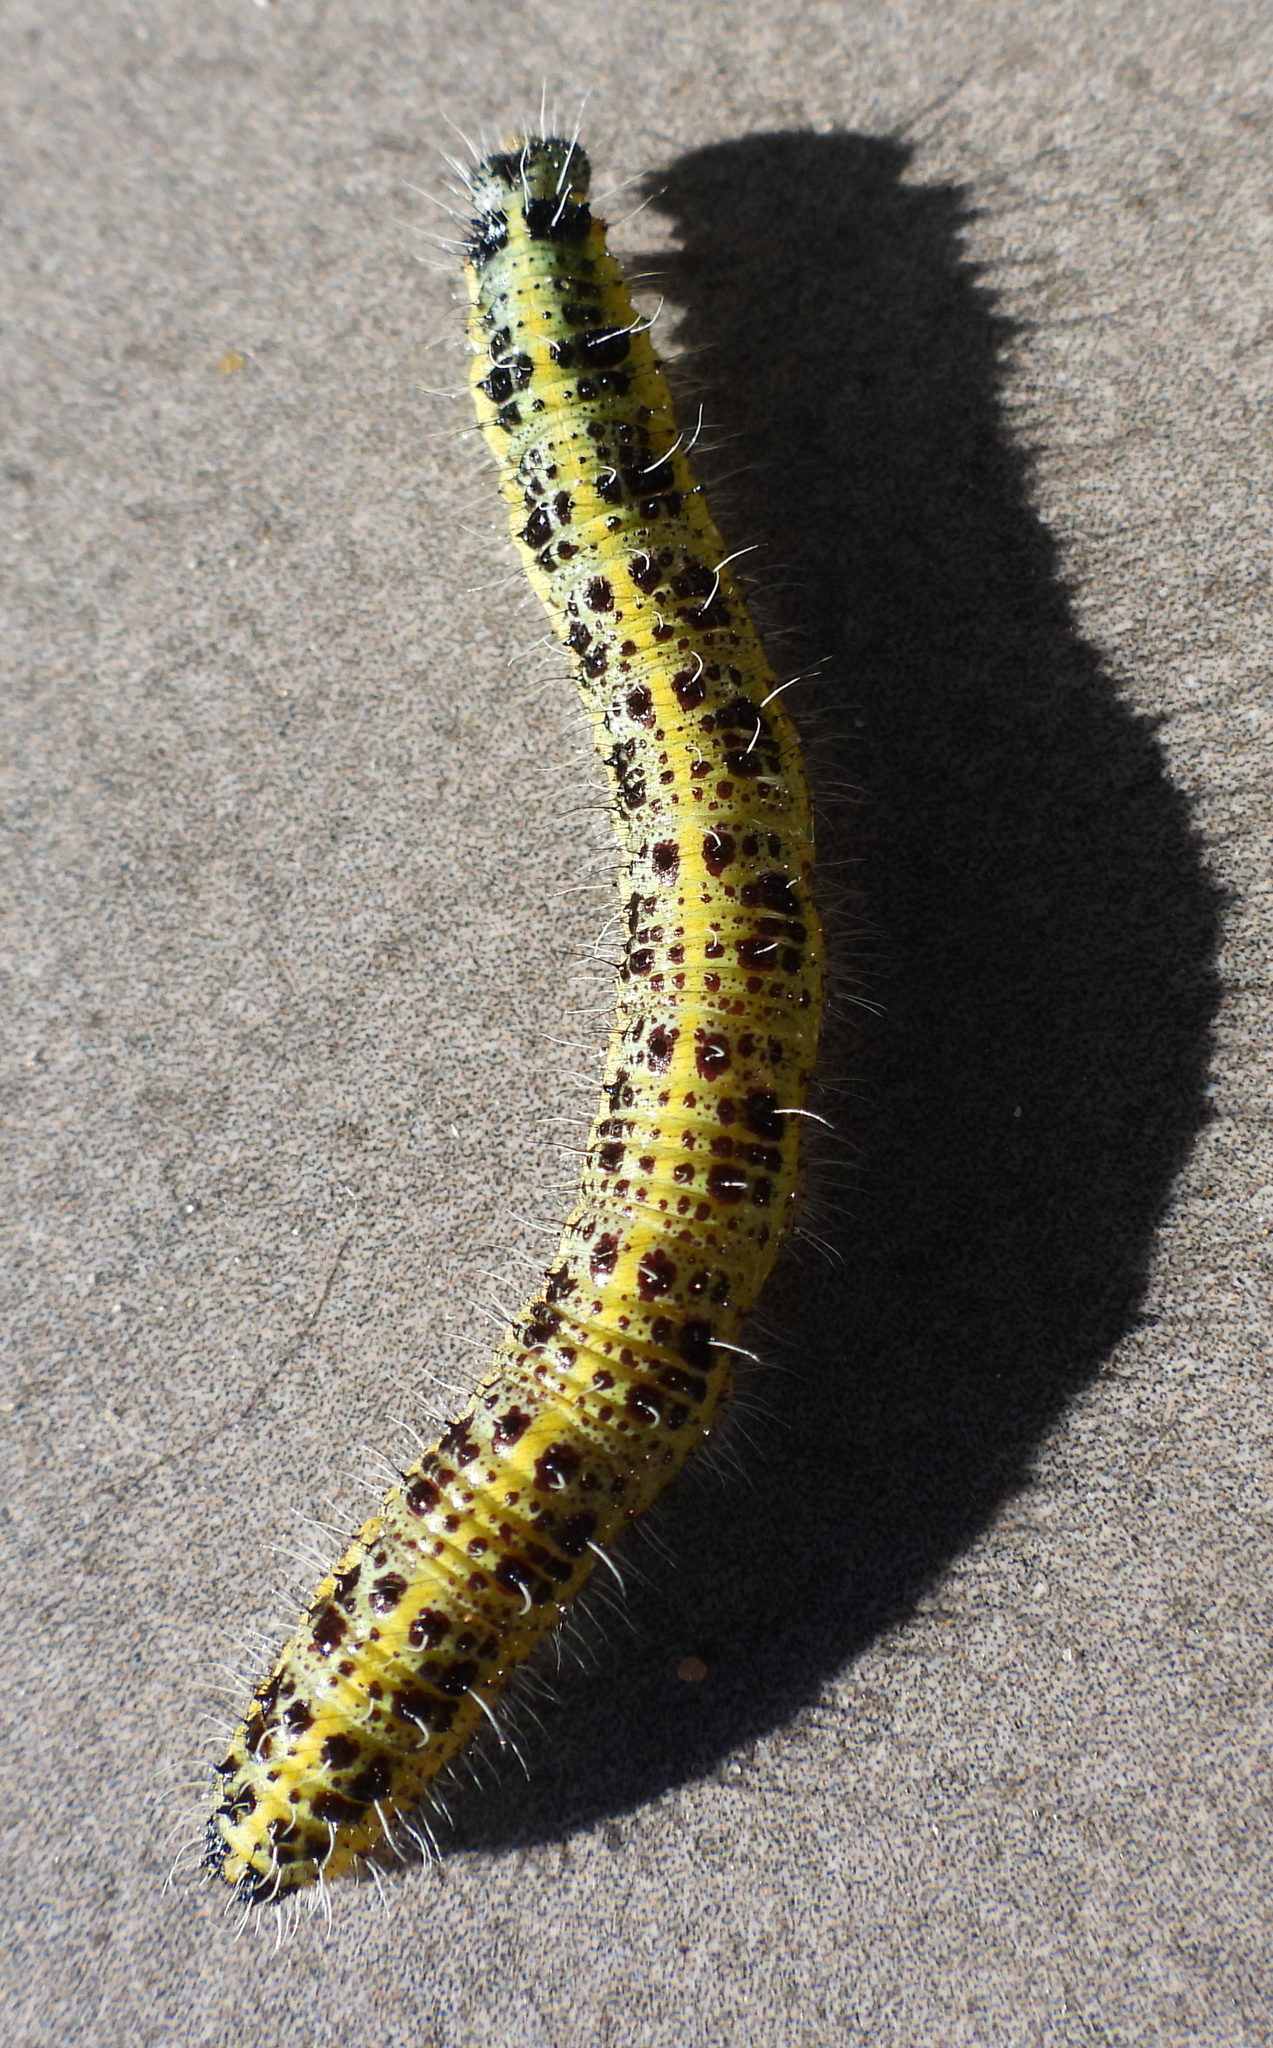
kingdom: Animalia
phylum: Arthropoda
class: Insecta
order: Lepidoptera
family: Pieridae
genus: Pieris
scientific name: Pieris brassicae
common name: Large white
